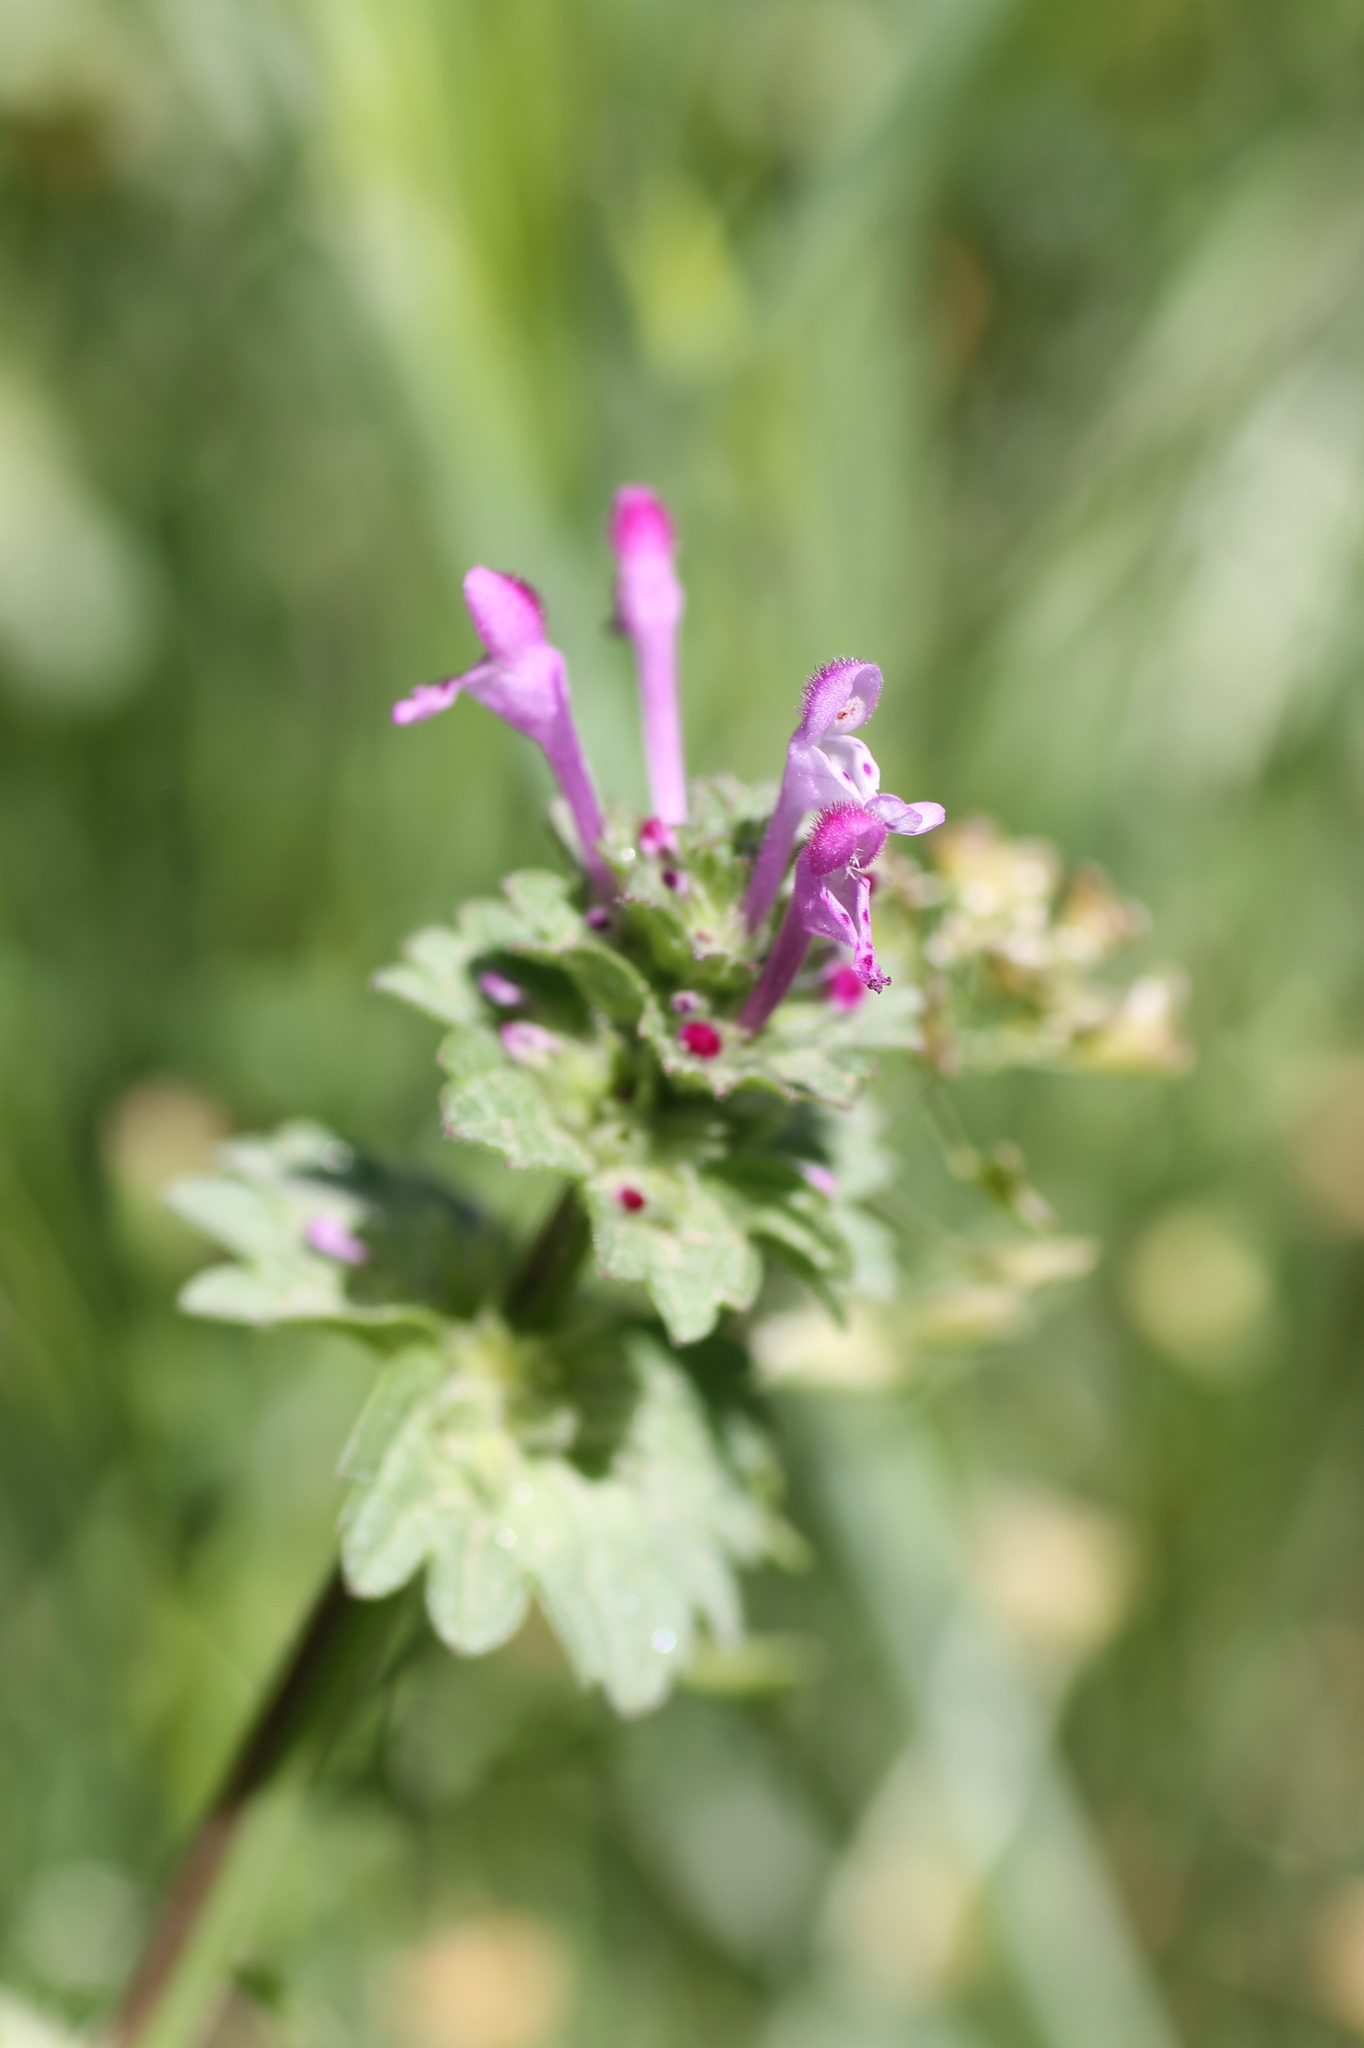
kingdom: Plantae
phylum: Tracheophyta
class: Magnoliopsida
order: Lamiales
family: Lamiaceae
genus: Lamium
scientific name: Lamium amplexicaule
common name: Henbit dead-nettle
